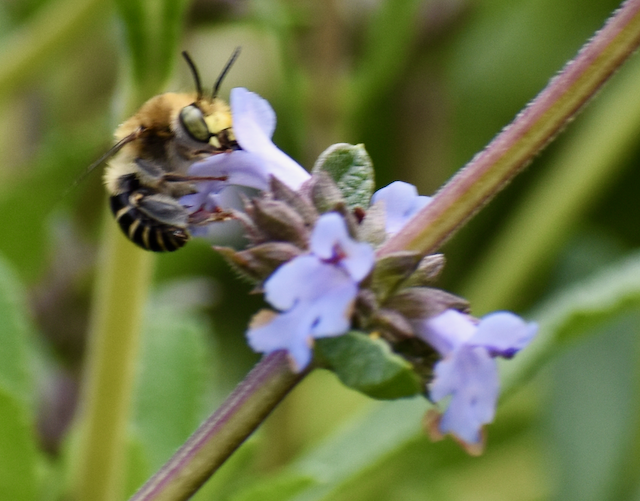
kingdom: Animalia
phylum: Arthropoda
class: Insecta
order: Hymenoptera
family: Apidae
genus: Anthophora
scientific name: Anthophora californica
